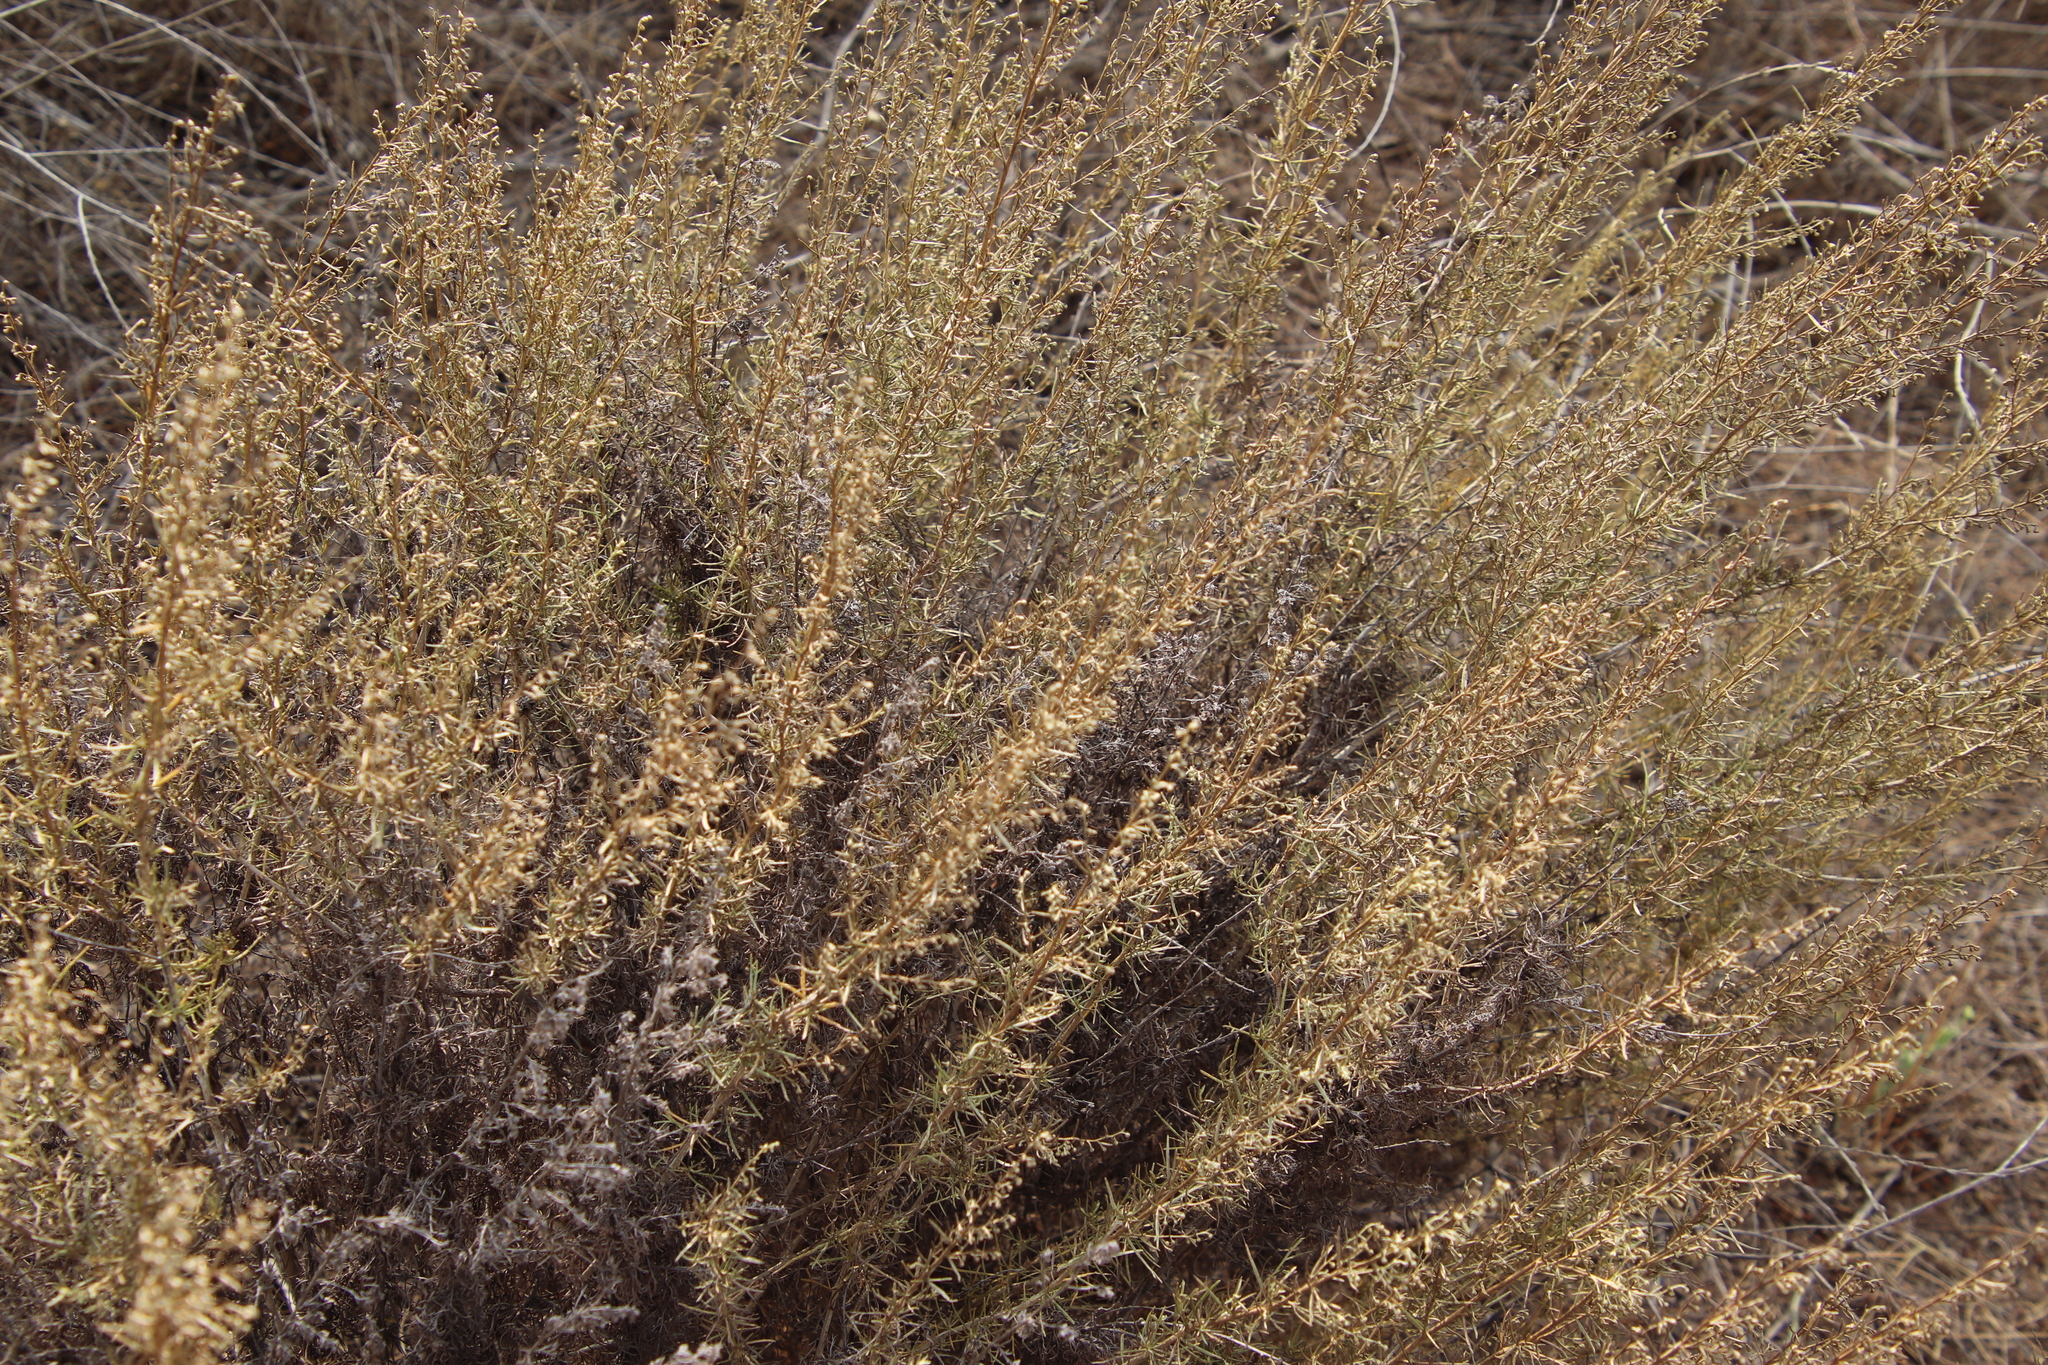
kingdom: Plantae
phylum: Tracheophyta
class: Magnoliopsida
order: Asterales
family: Asteraceae
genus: Artemisia
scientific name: Artemisia californica
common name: California sagebrush
